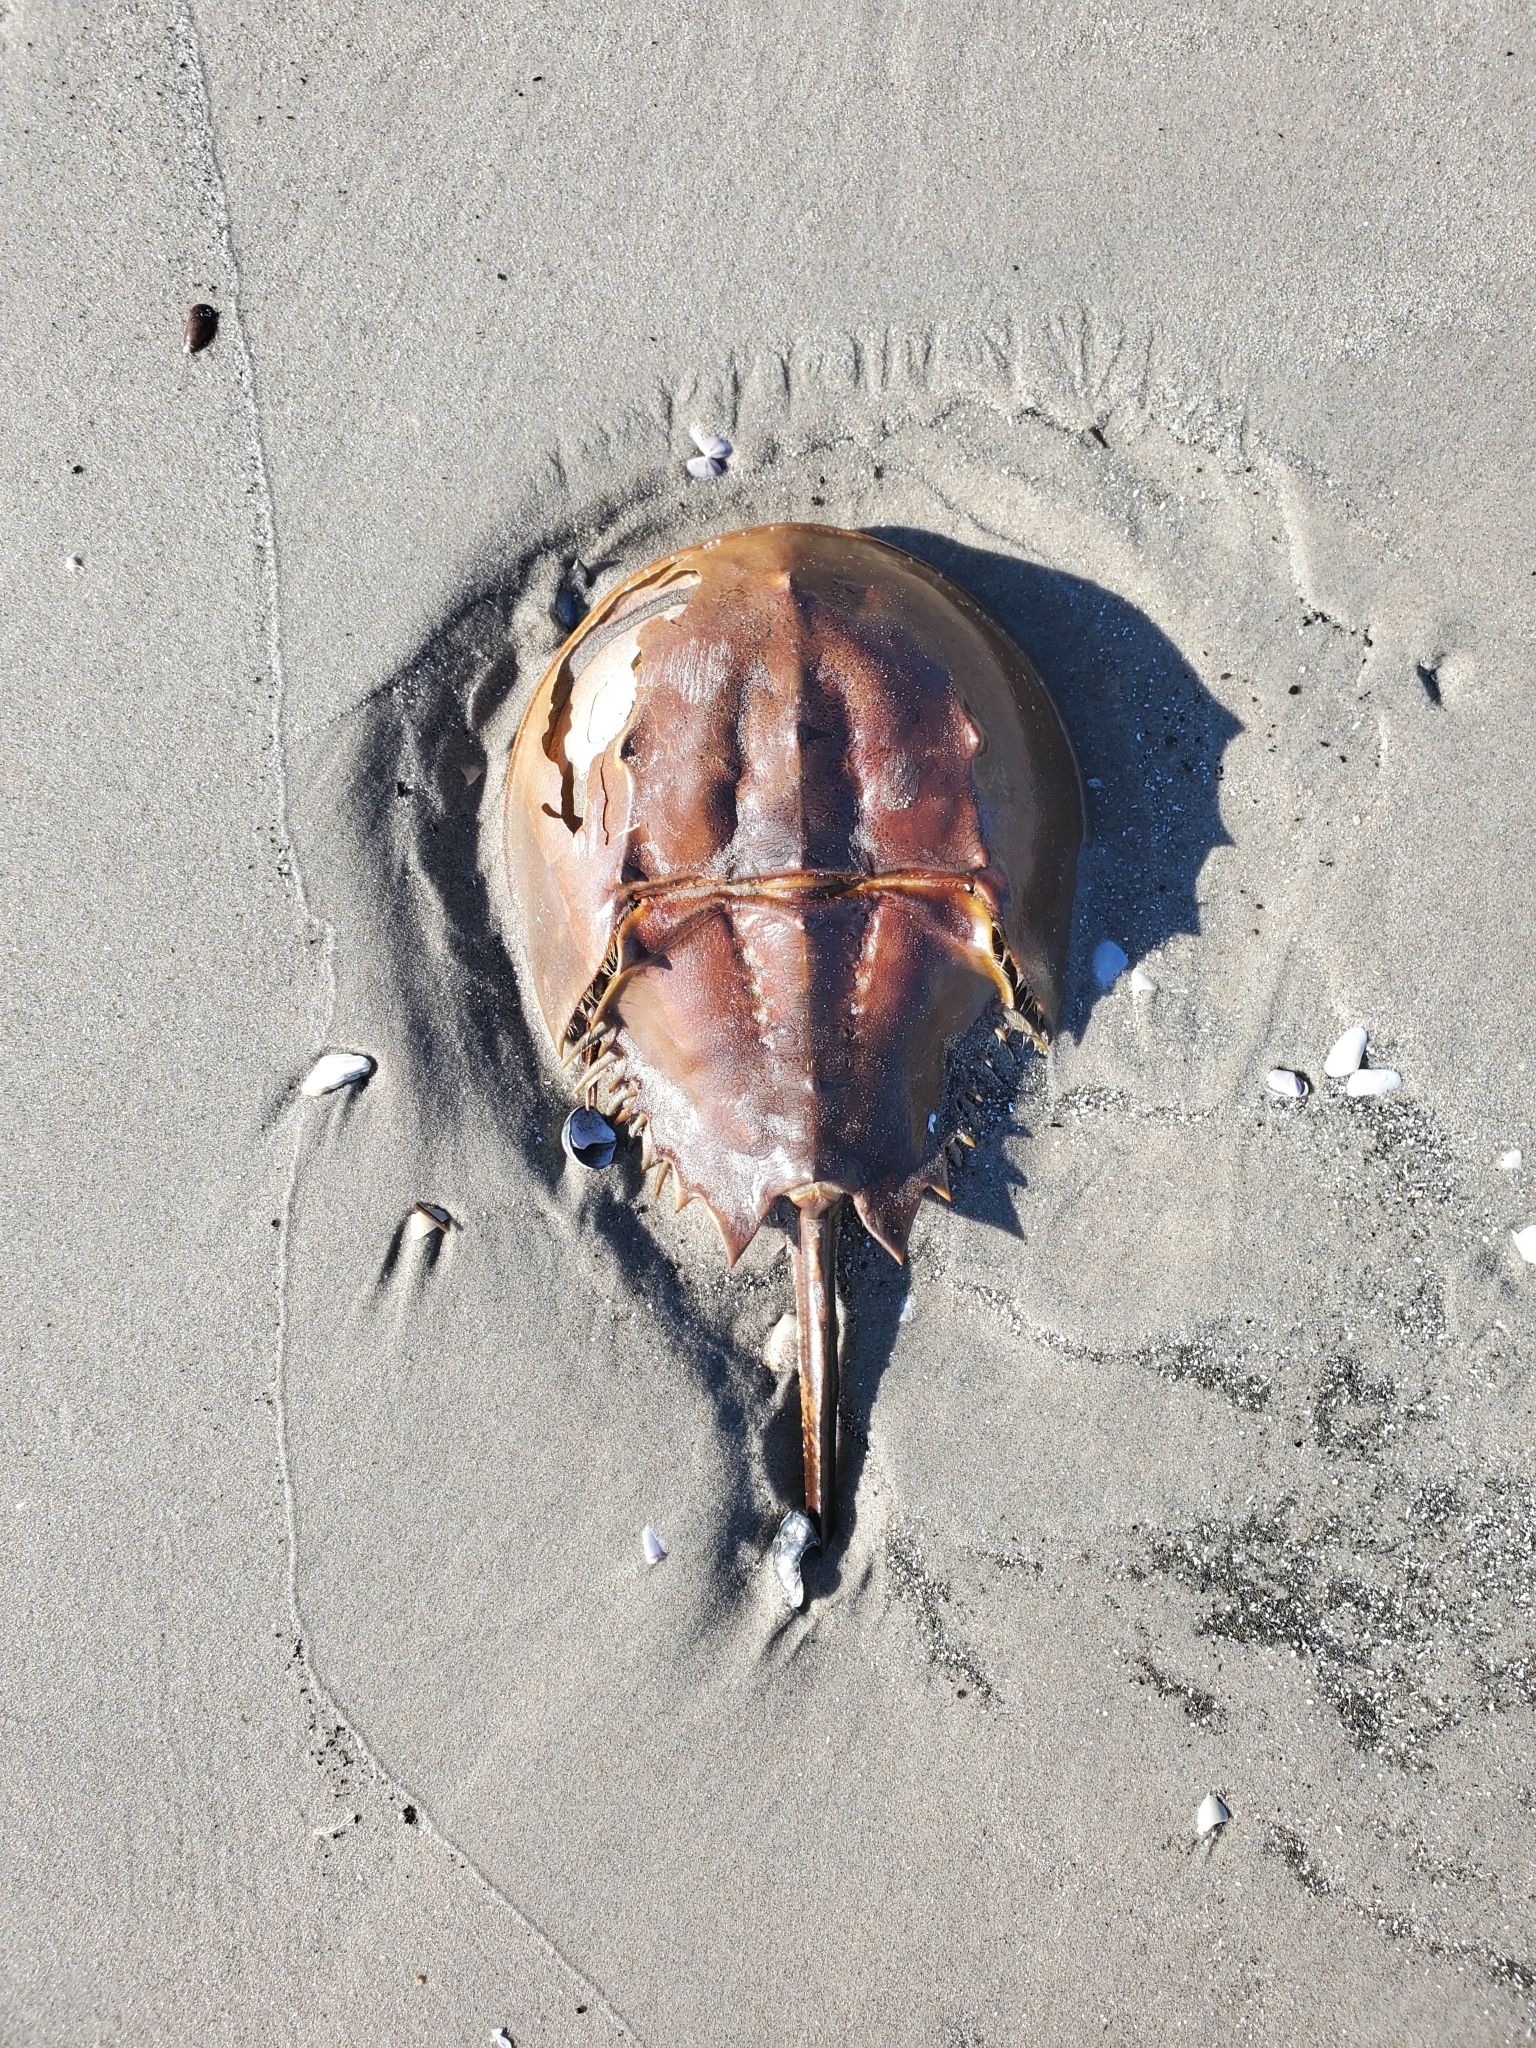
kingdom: Animalia
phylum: Arthropoda
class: Merostomata
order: Xiphosurida
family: Limulidae
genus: Limulus
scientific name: Limulus polyphemus
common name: Horseshoe crab
